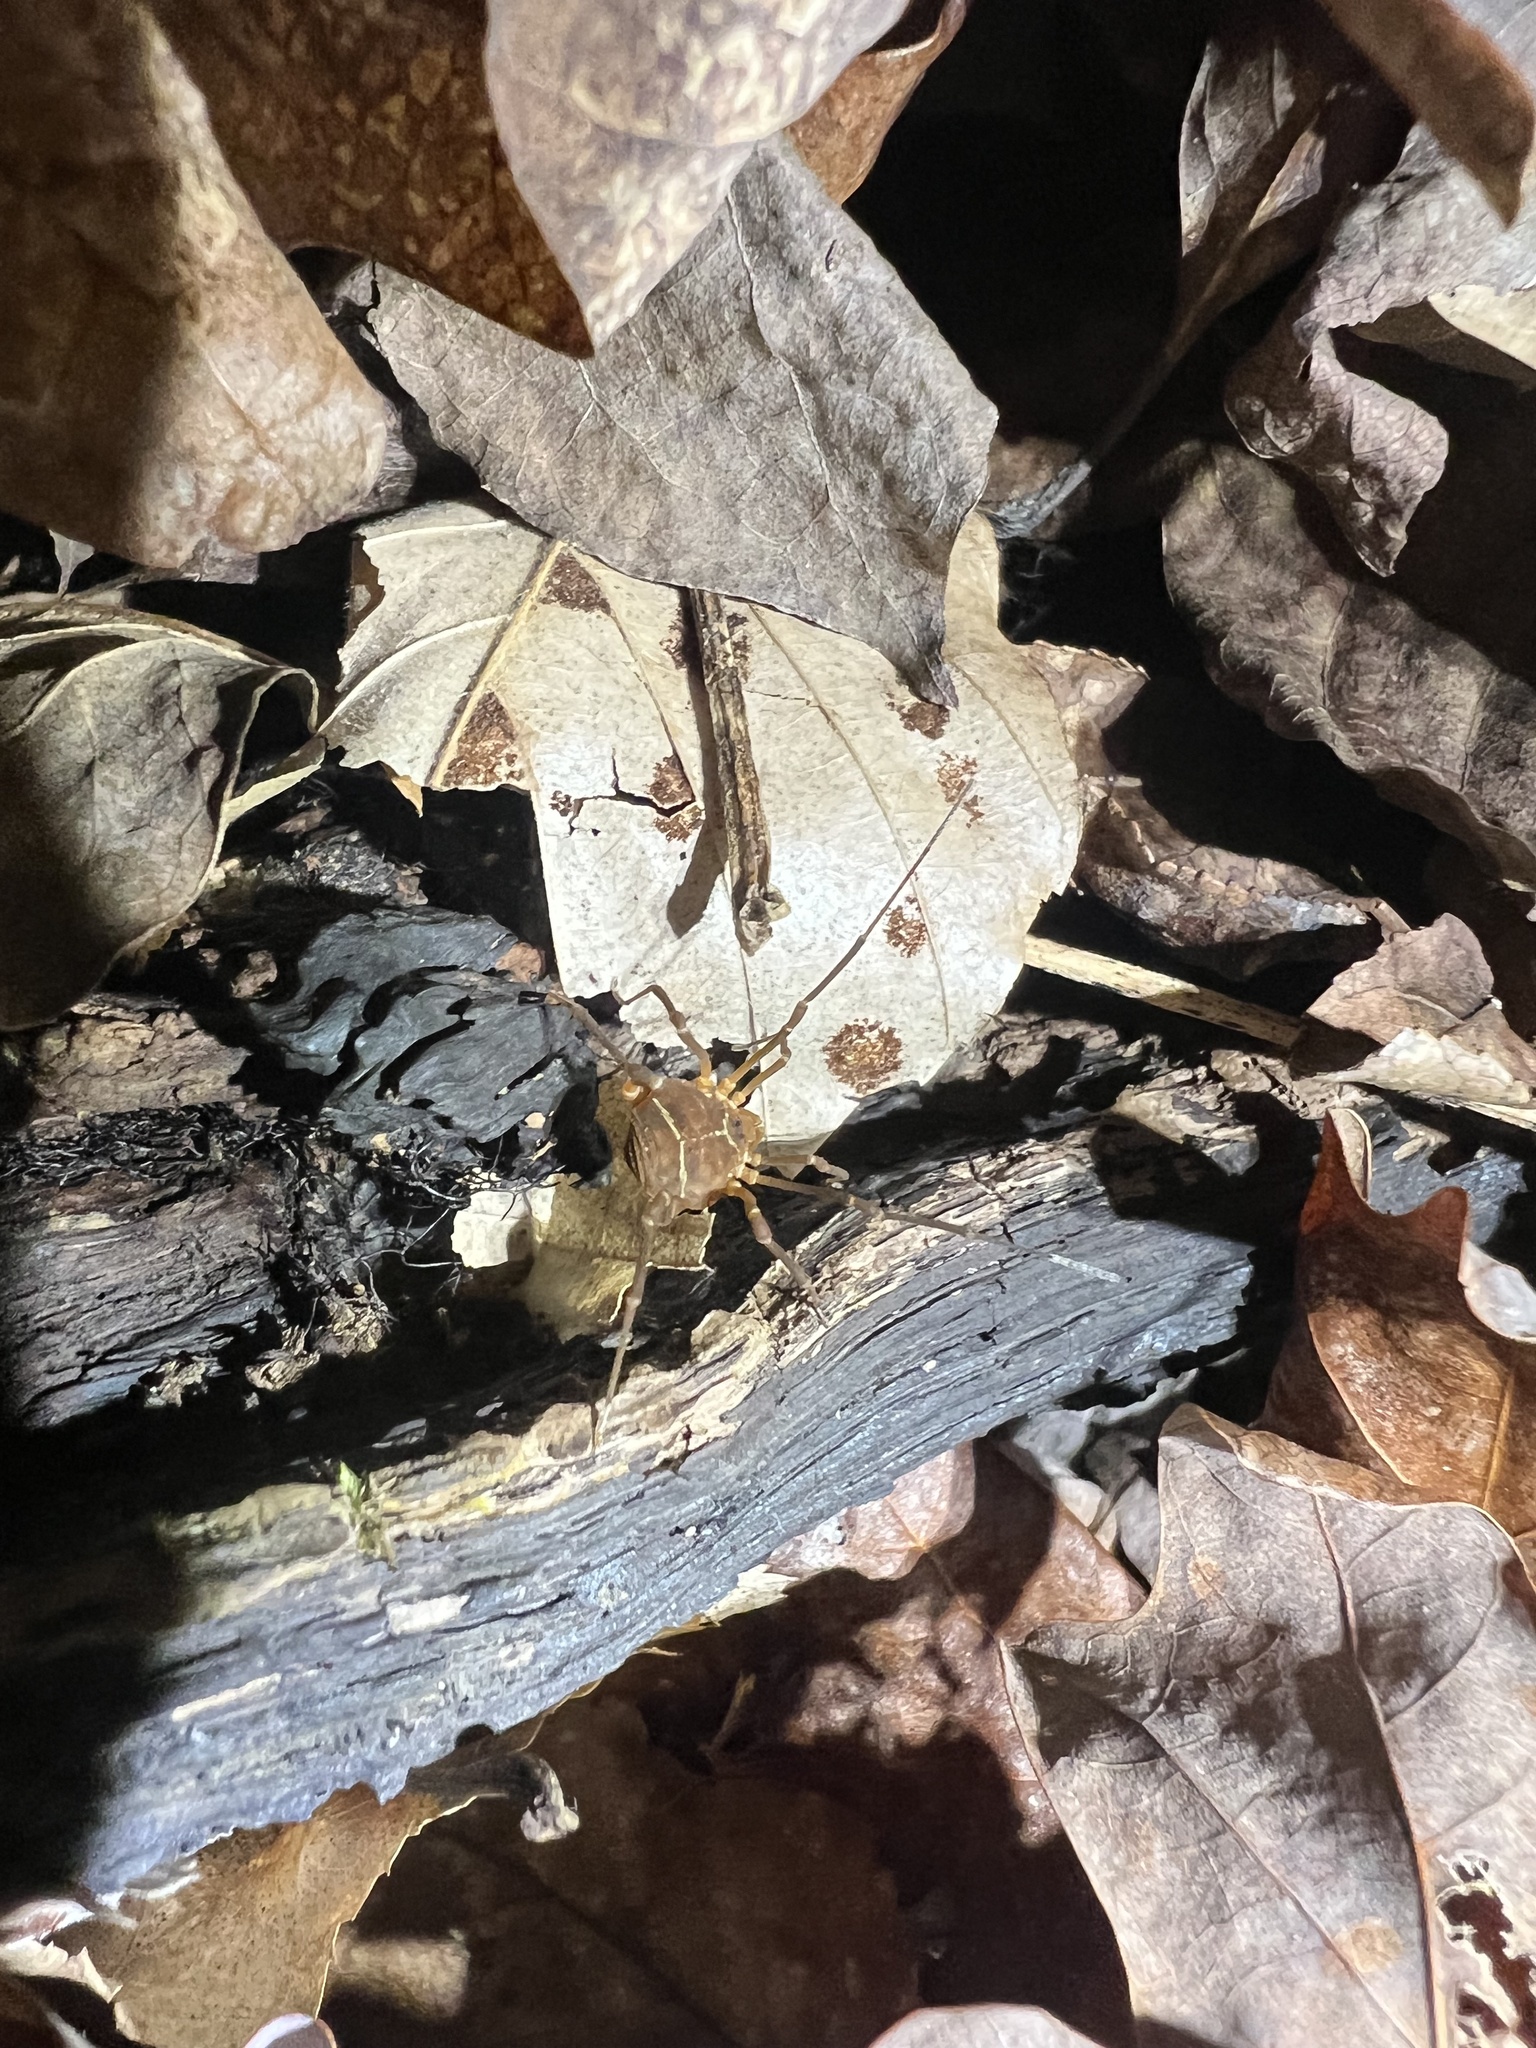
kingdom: Animalia
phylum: Arthropoda
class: Arachnida
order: Opiliones
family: Cosmetidae
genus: Libitioides
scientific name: Libitioides sayi
